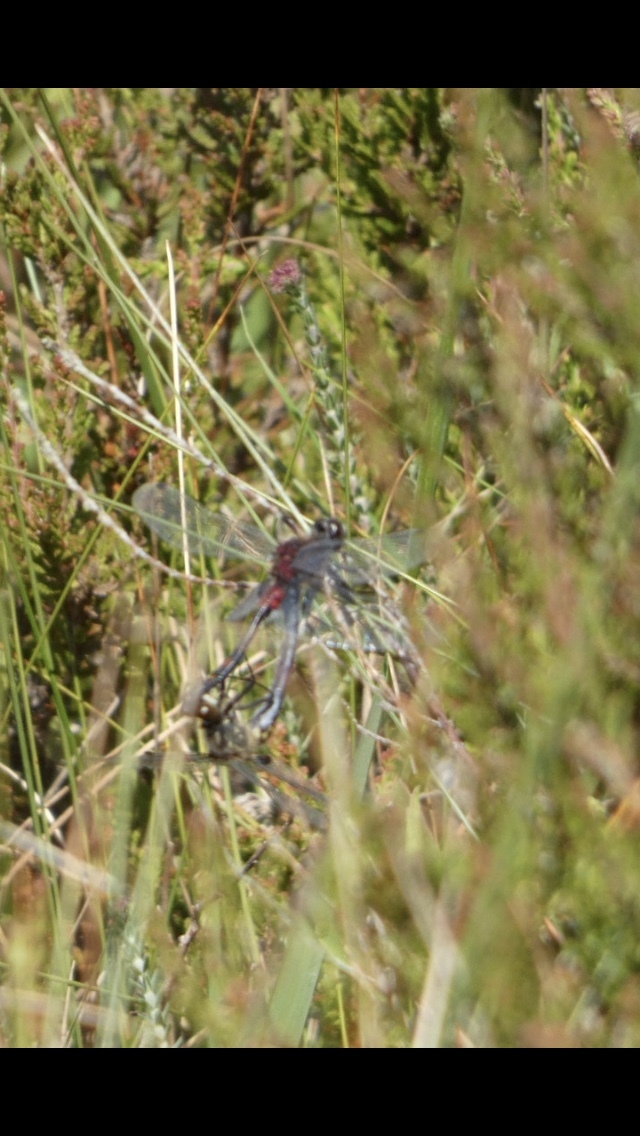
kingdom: Animalia
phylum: Arthropoda
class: Insecta
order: Odonata
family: Libellulidae
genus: Leucorrhinia
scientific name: Leucorrhinia dubia
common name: White-faced darter
